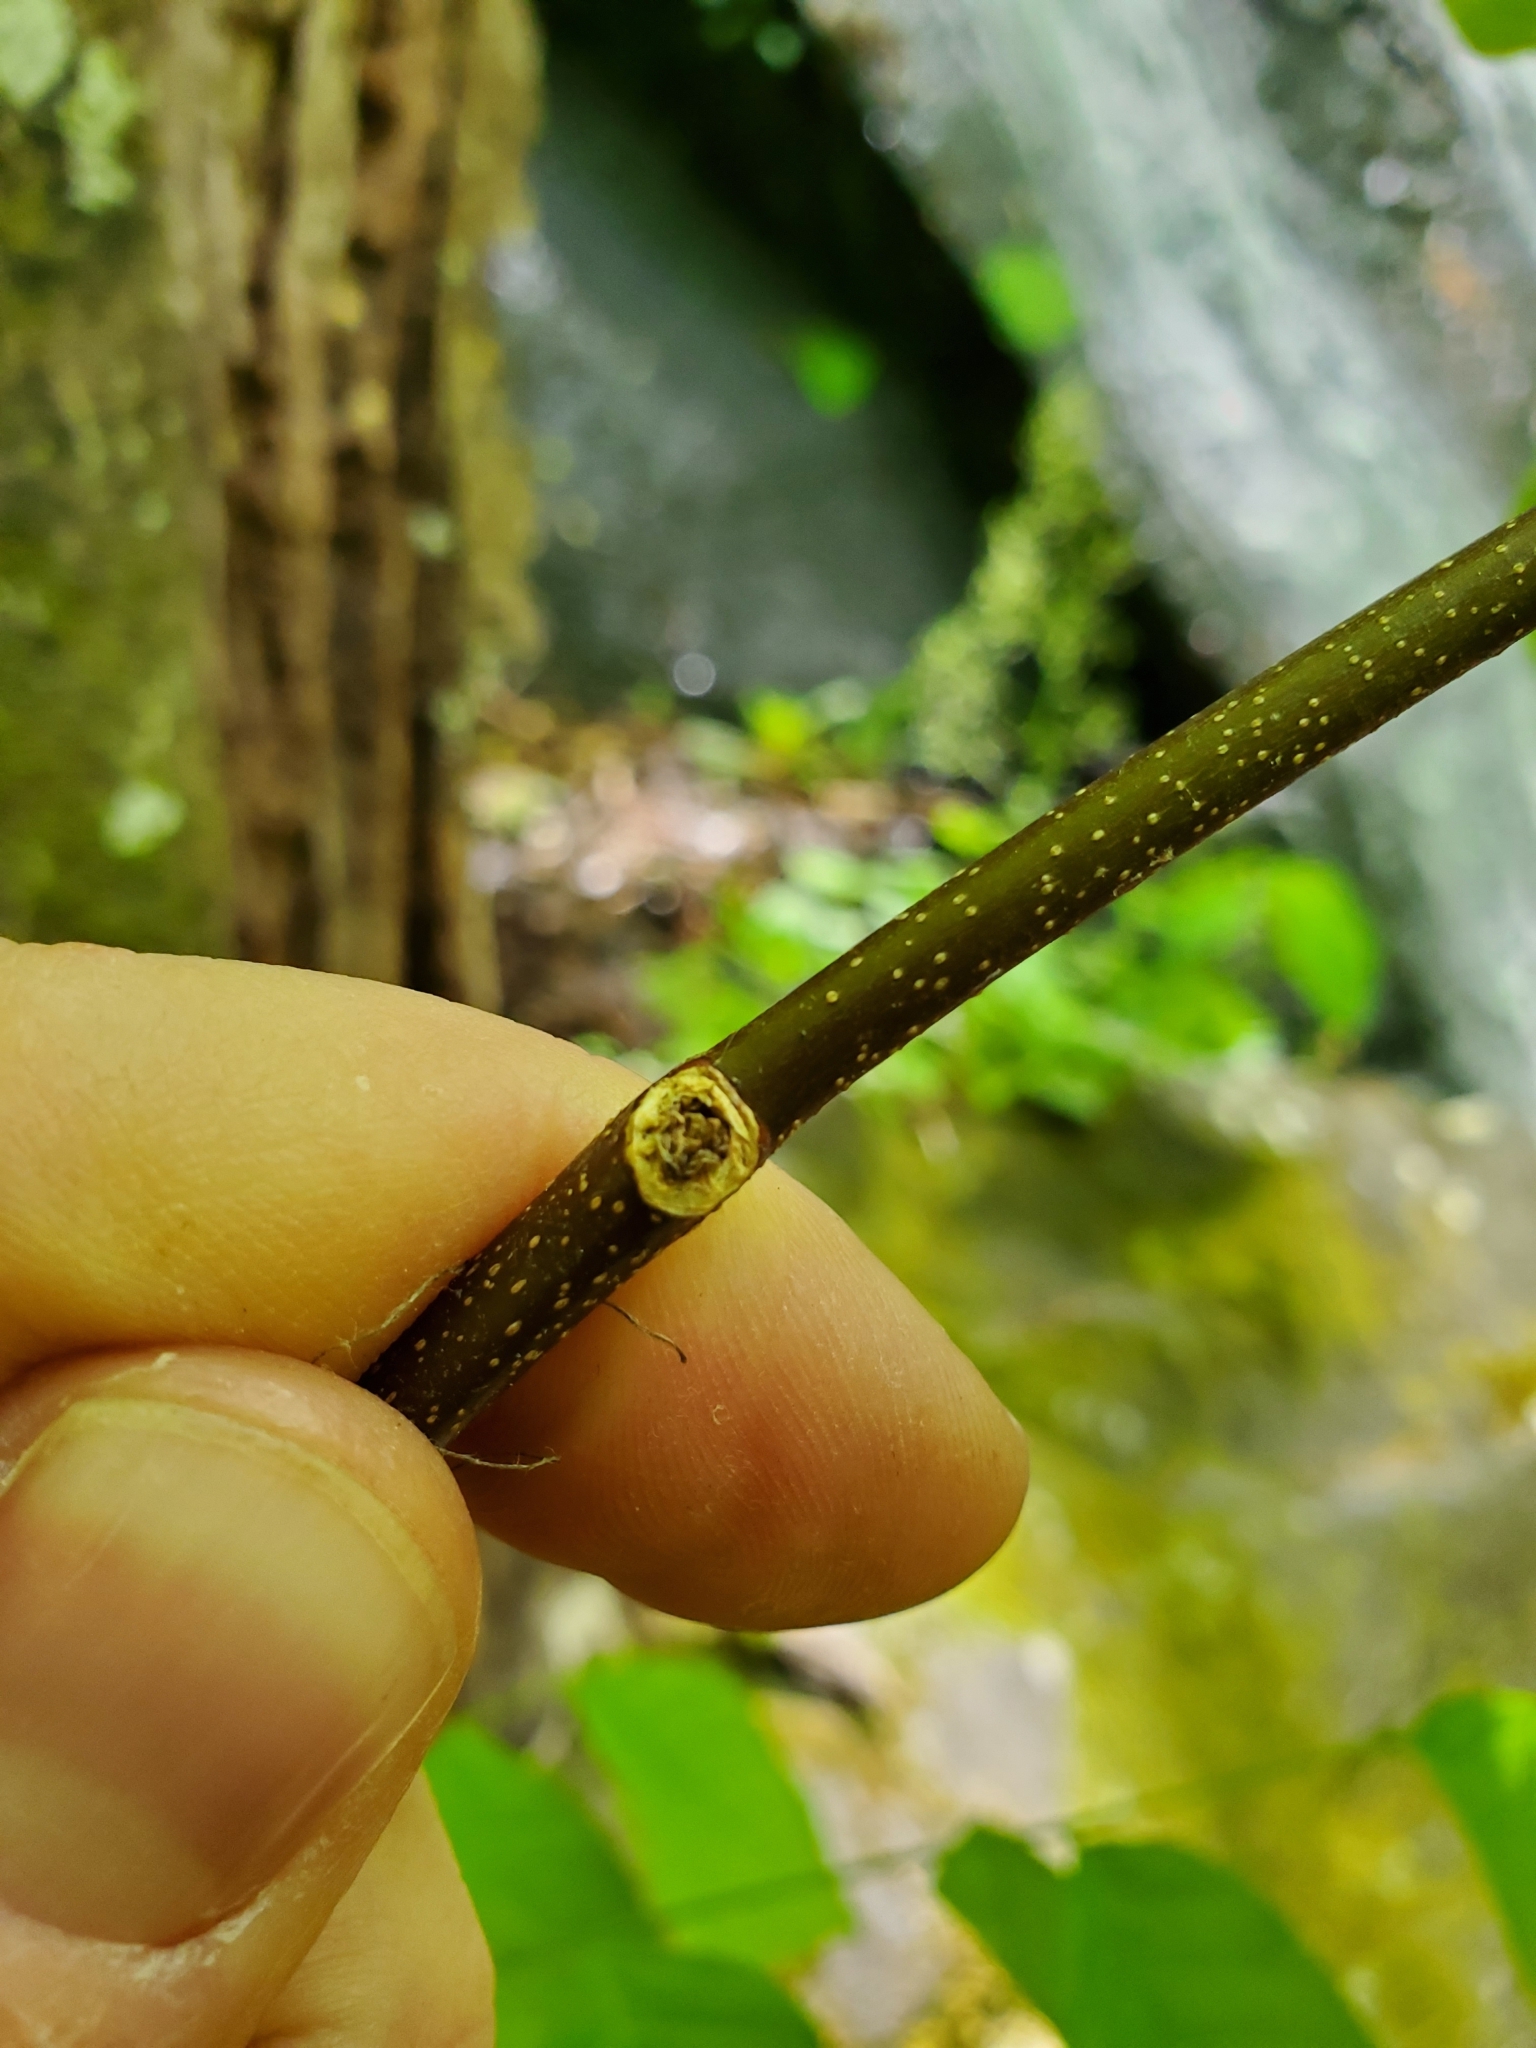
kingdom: Plantae
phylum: Tracheophyta
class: Magnoliopsida
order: Fabales
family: Fabaceae
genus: Cladrastis
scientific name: Cladrastis kentukea
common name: Kentucky yellow-wood
